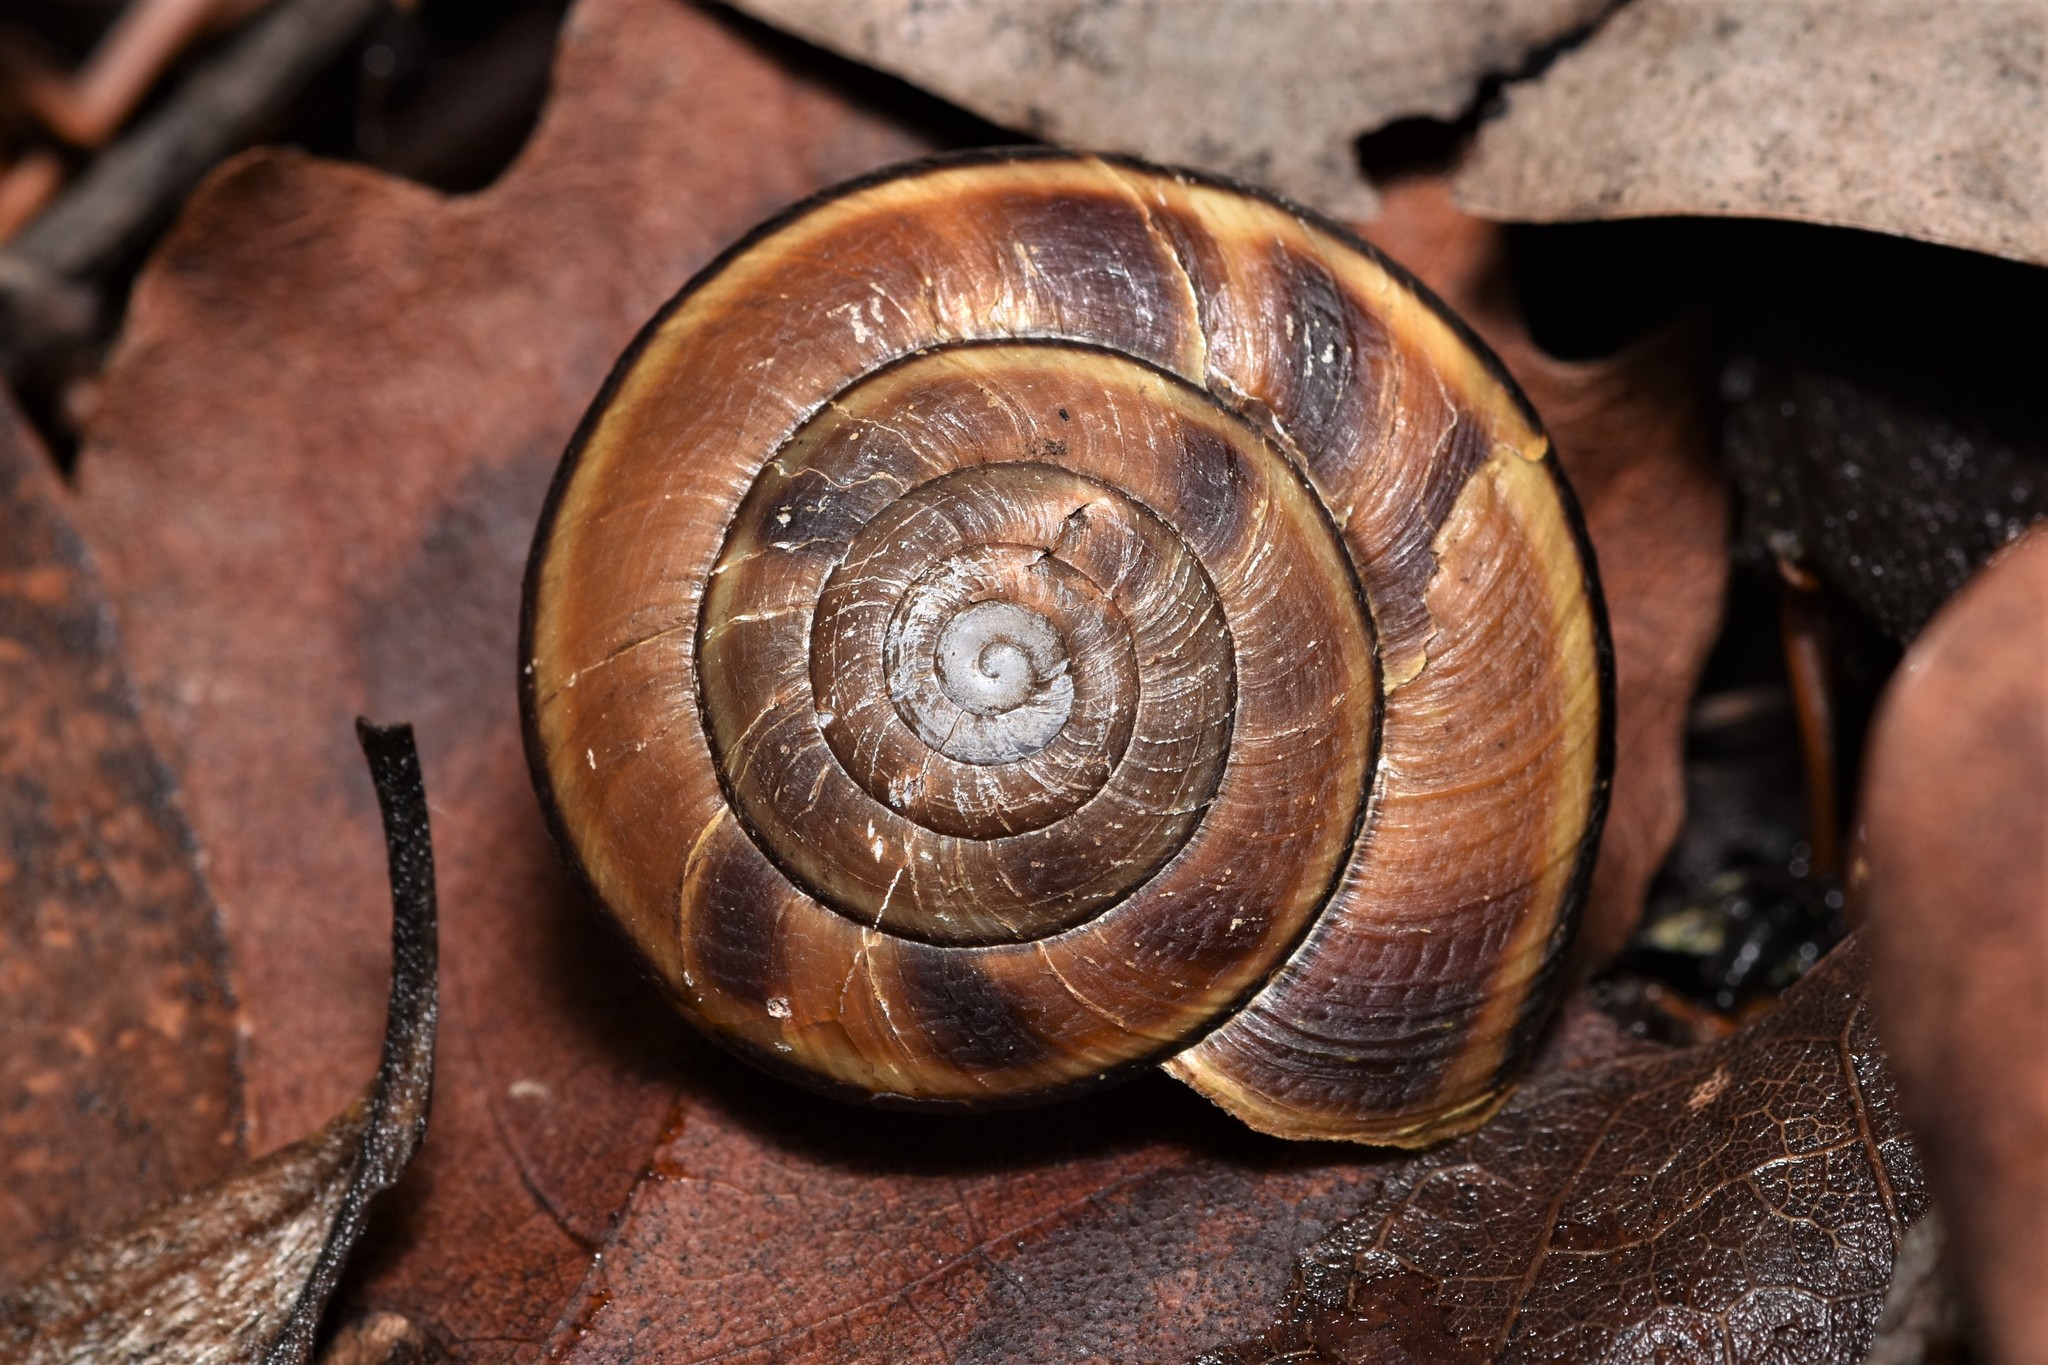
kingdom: Animalia
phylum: Mollusca
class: Gastropoda
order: Stylommatophora
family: Xanthonychidae
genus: Monadenia
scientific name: Monadenia fidelis
